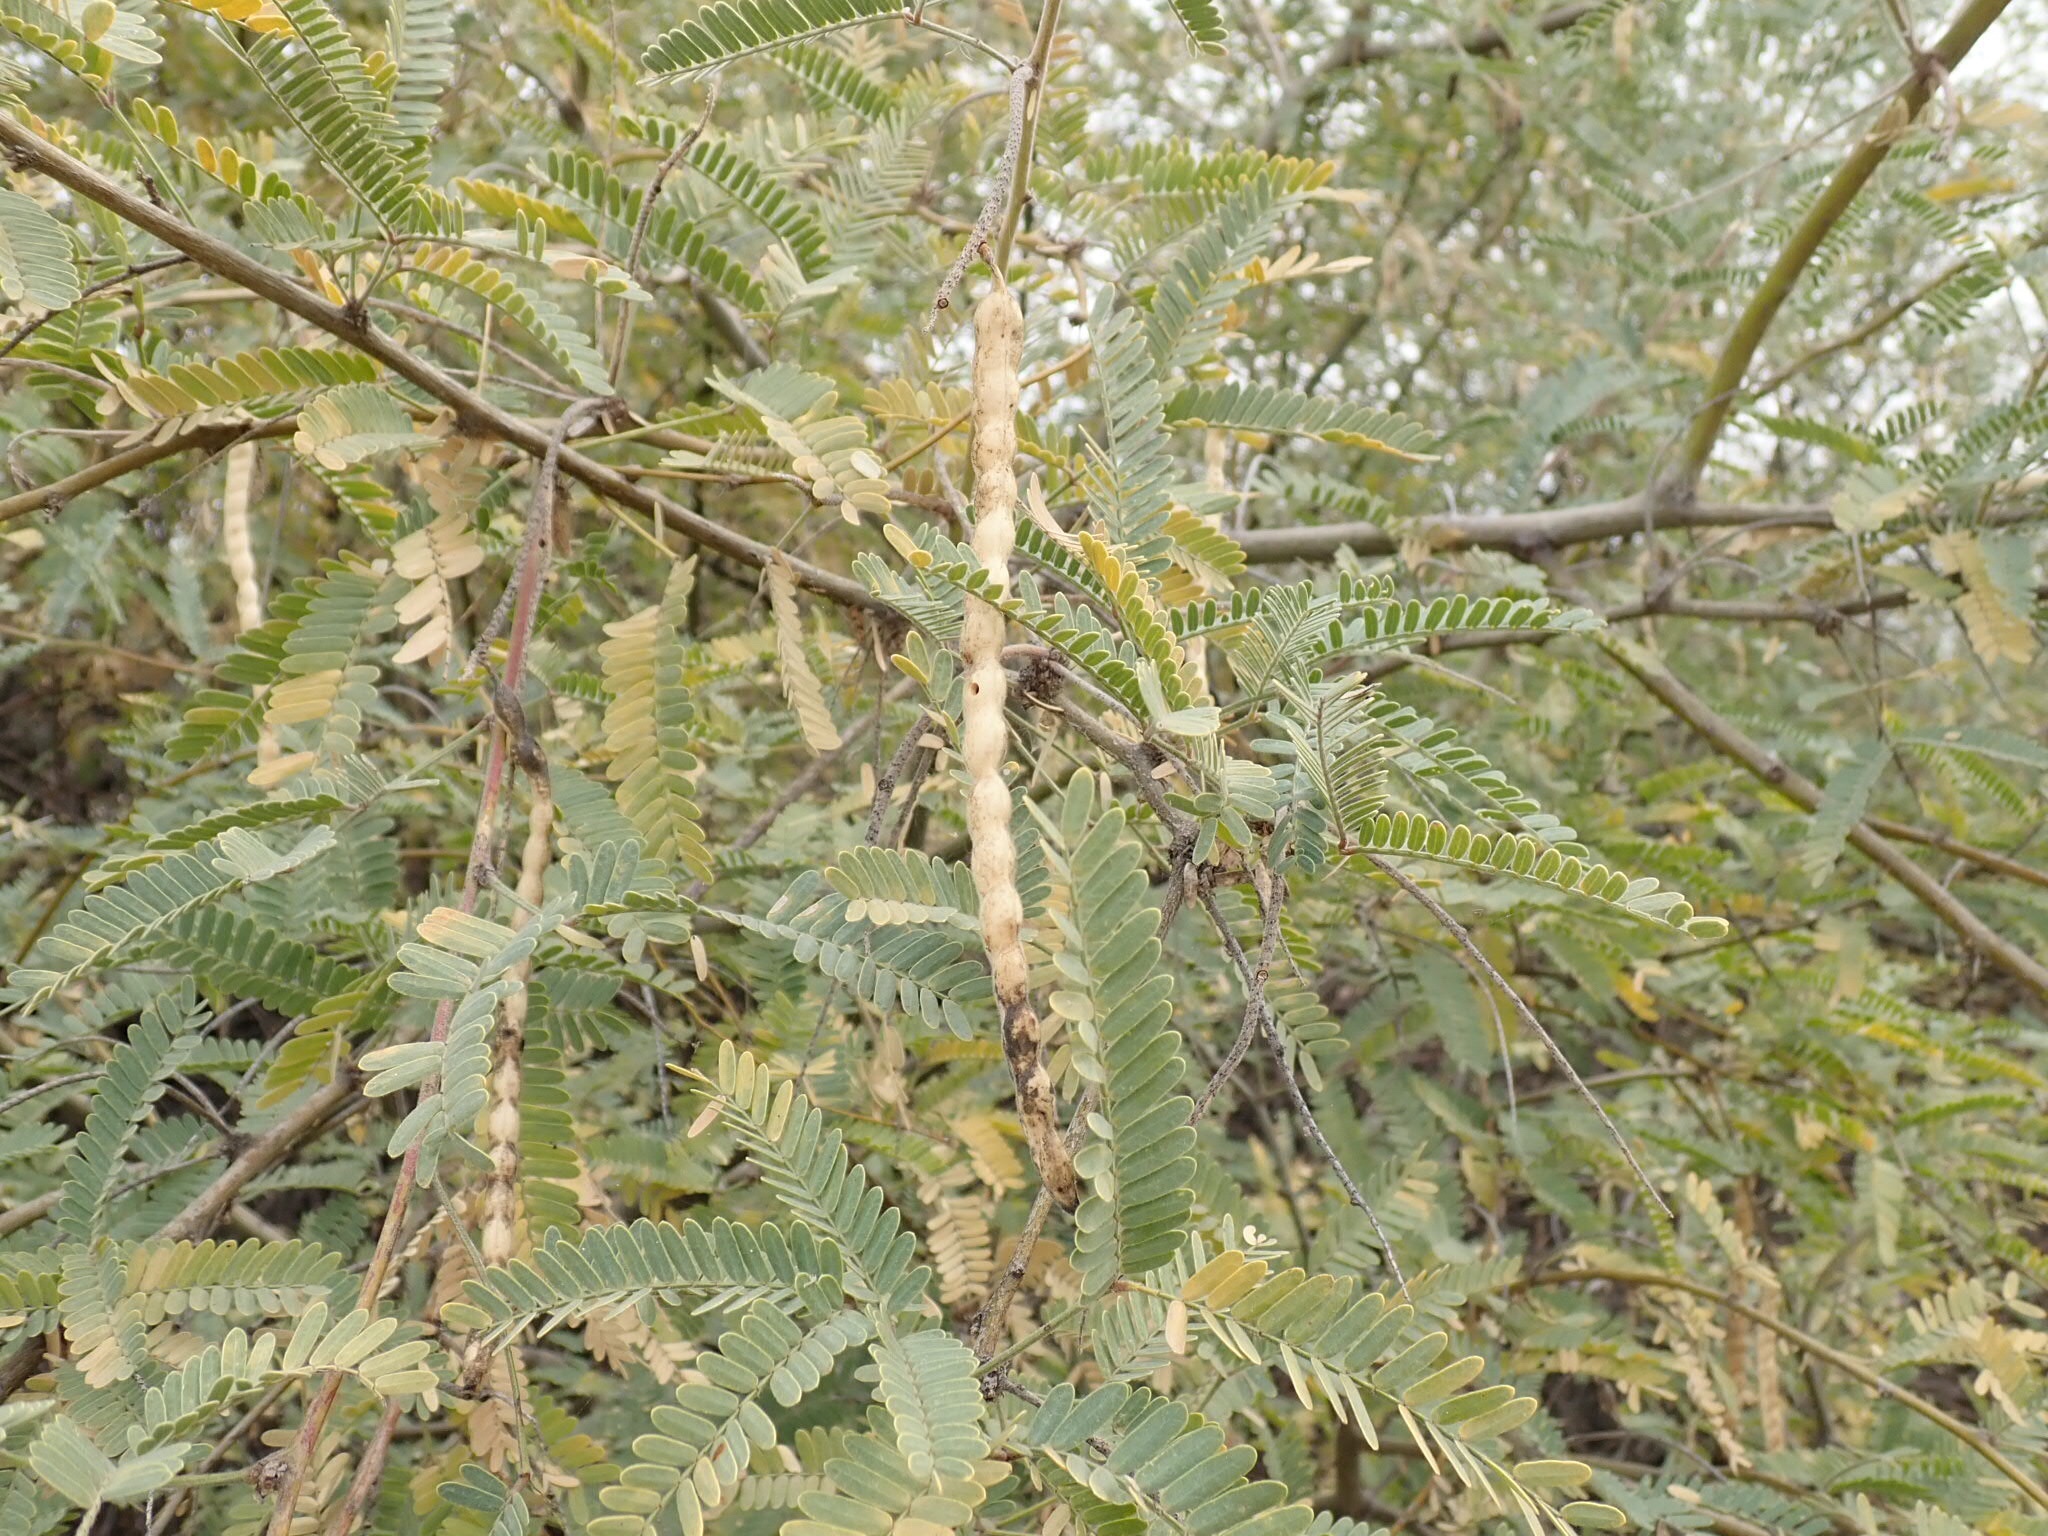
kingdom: Plantae
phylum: Tracheophyta
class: Magnoliopsida
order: Fabales
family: Fabaceae
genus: Prosopis
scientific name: Prosopis velutina
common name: Velvet mesquite
